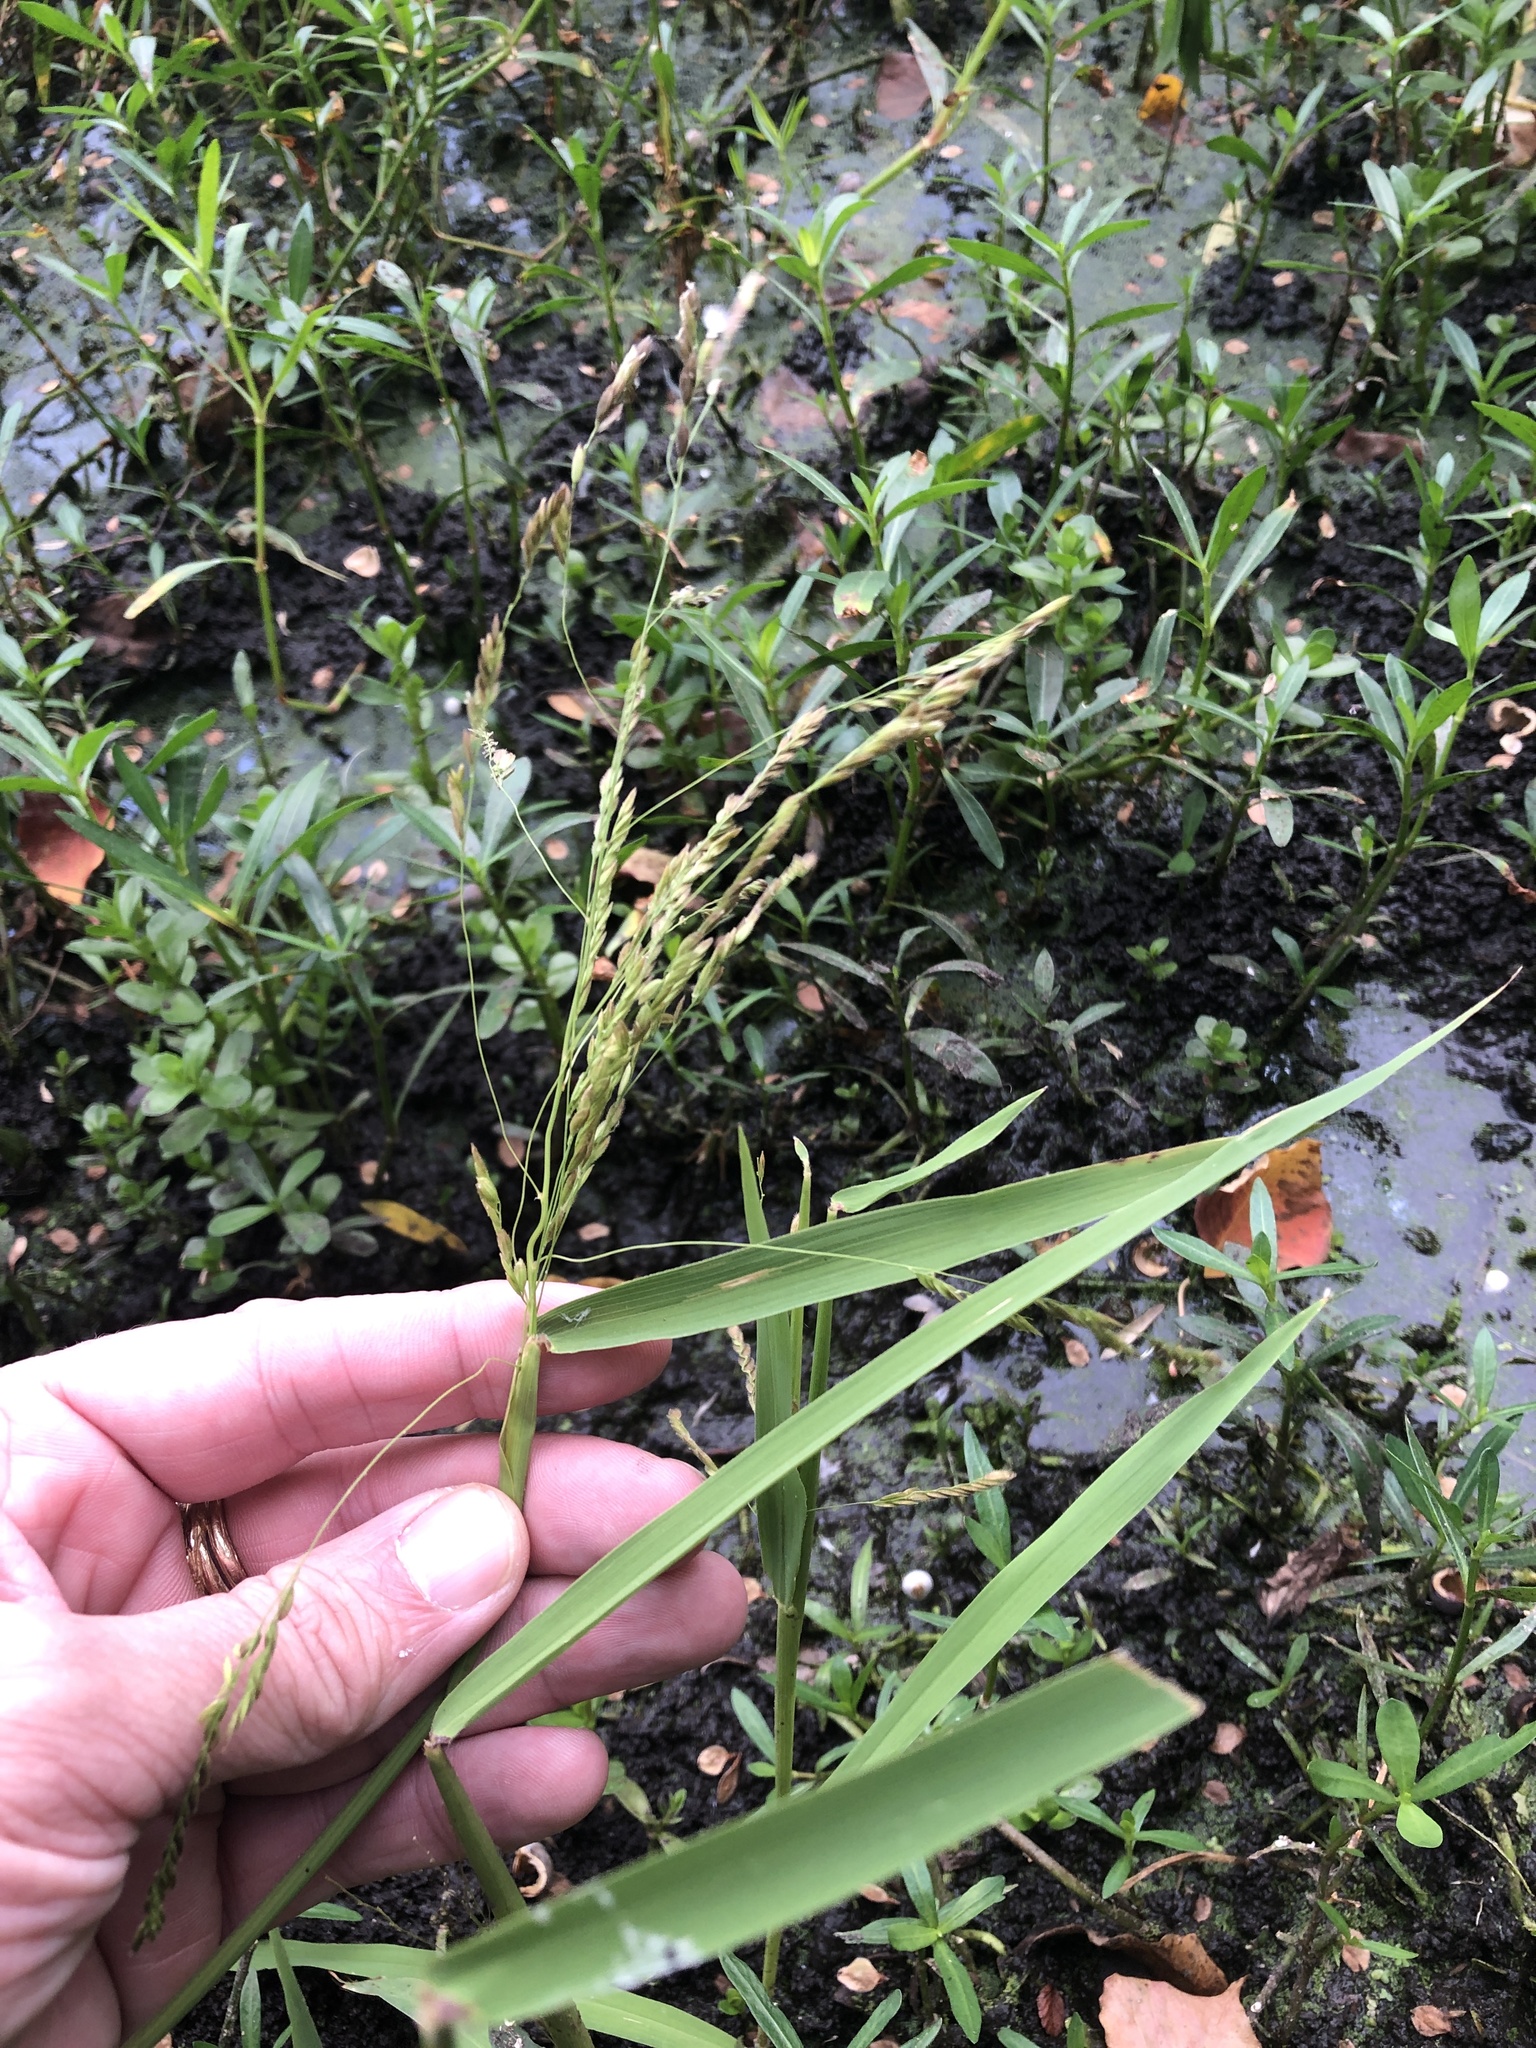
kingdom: Plantae
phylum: Tracheophyta
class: Liliopsida
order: Poales
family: Poaceae
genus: Leersia
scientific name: Leersia oryzoides
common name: Cut-grass
